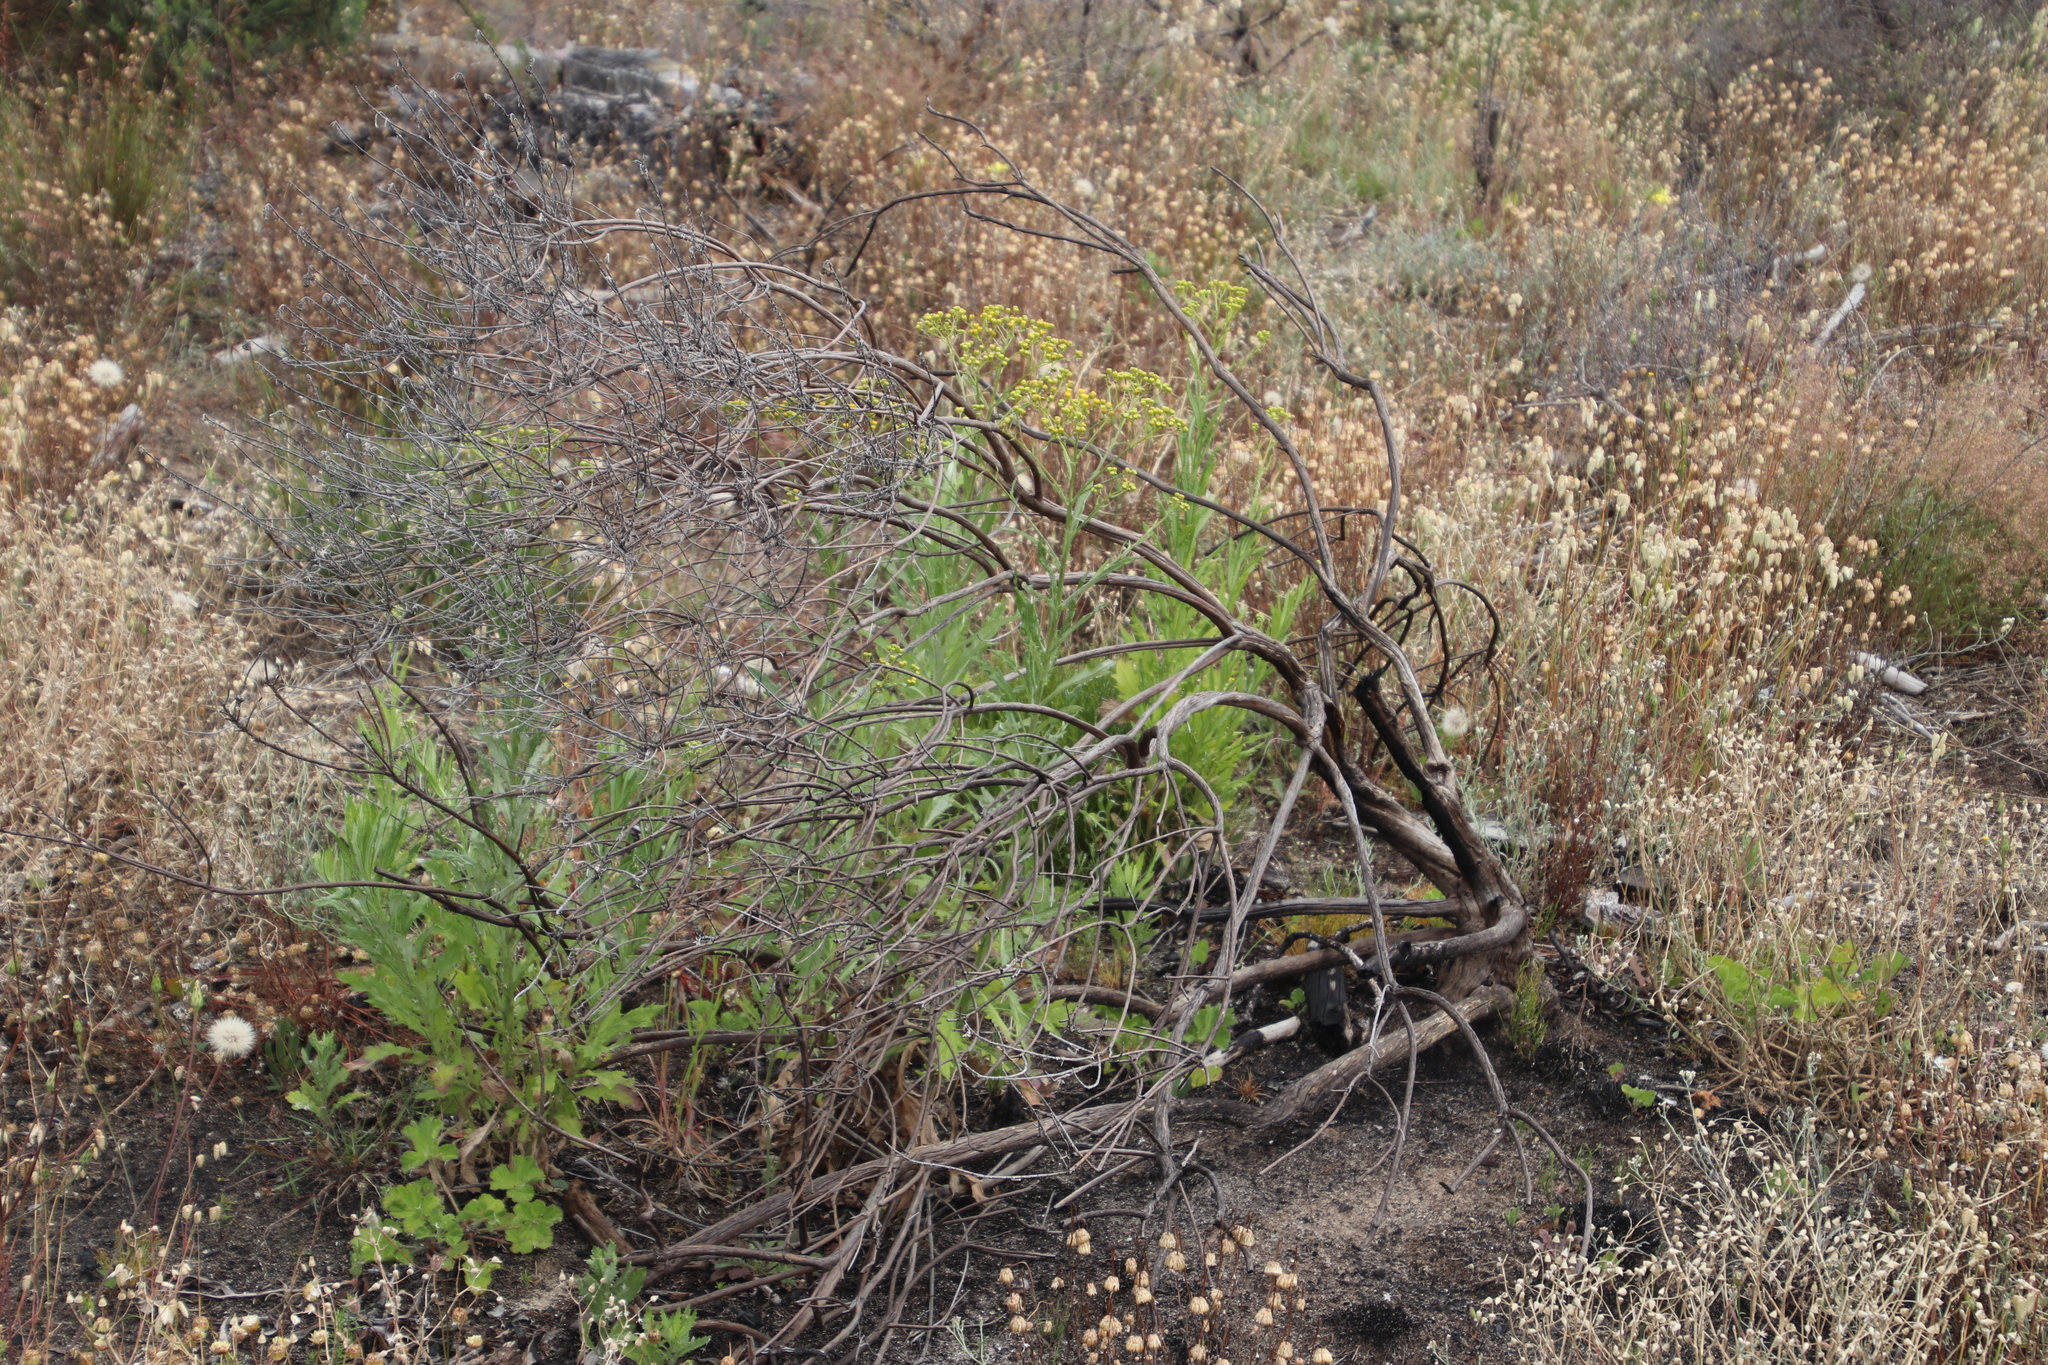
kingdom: Plantae
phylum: Tracheophyta
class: Magnoliopsida
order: Asterales
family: Asteraceae
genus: Senecio
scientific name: Senecio pterophorus
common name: Shoddy ragwort
